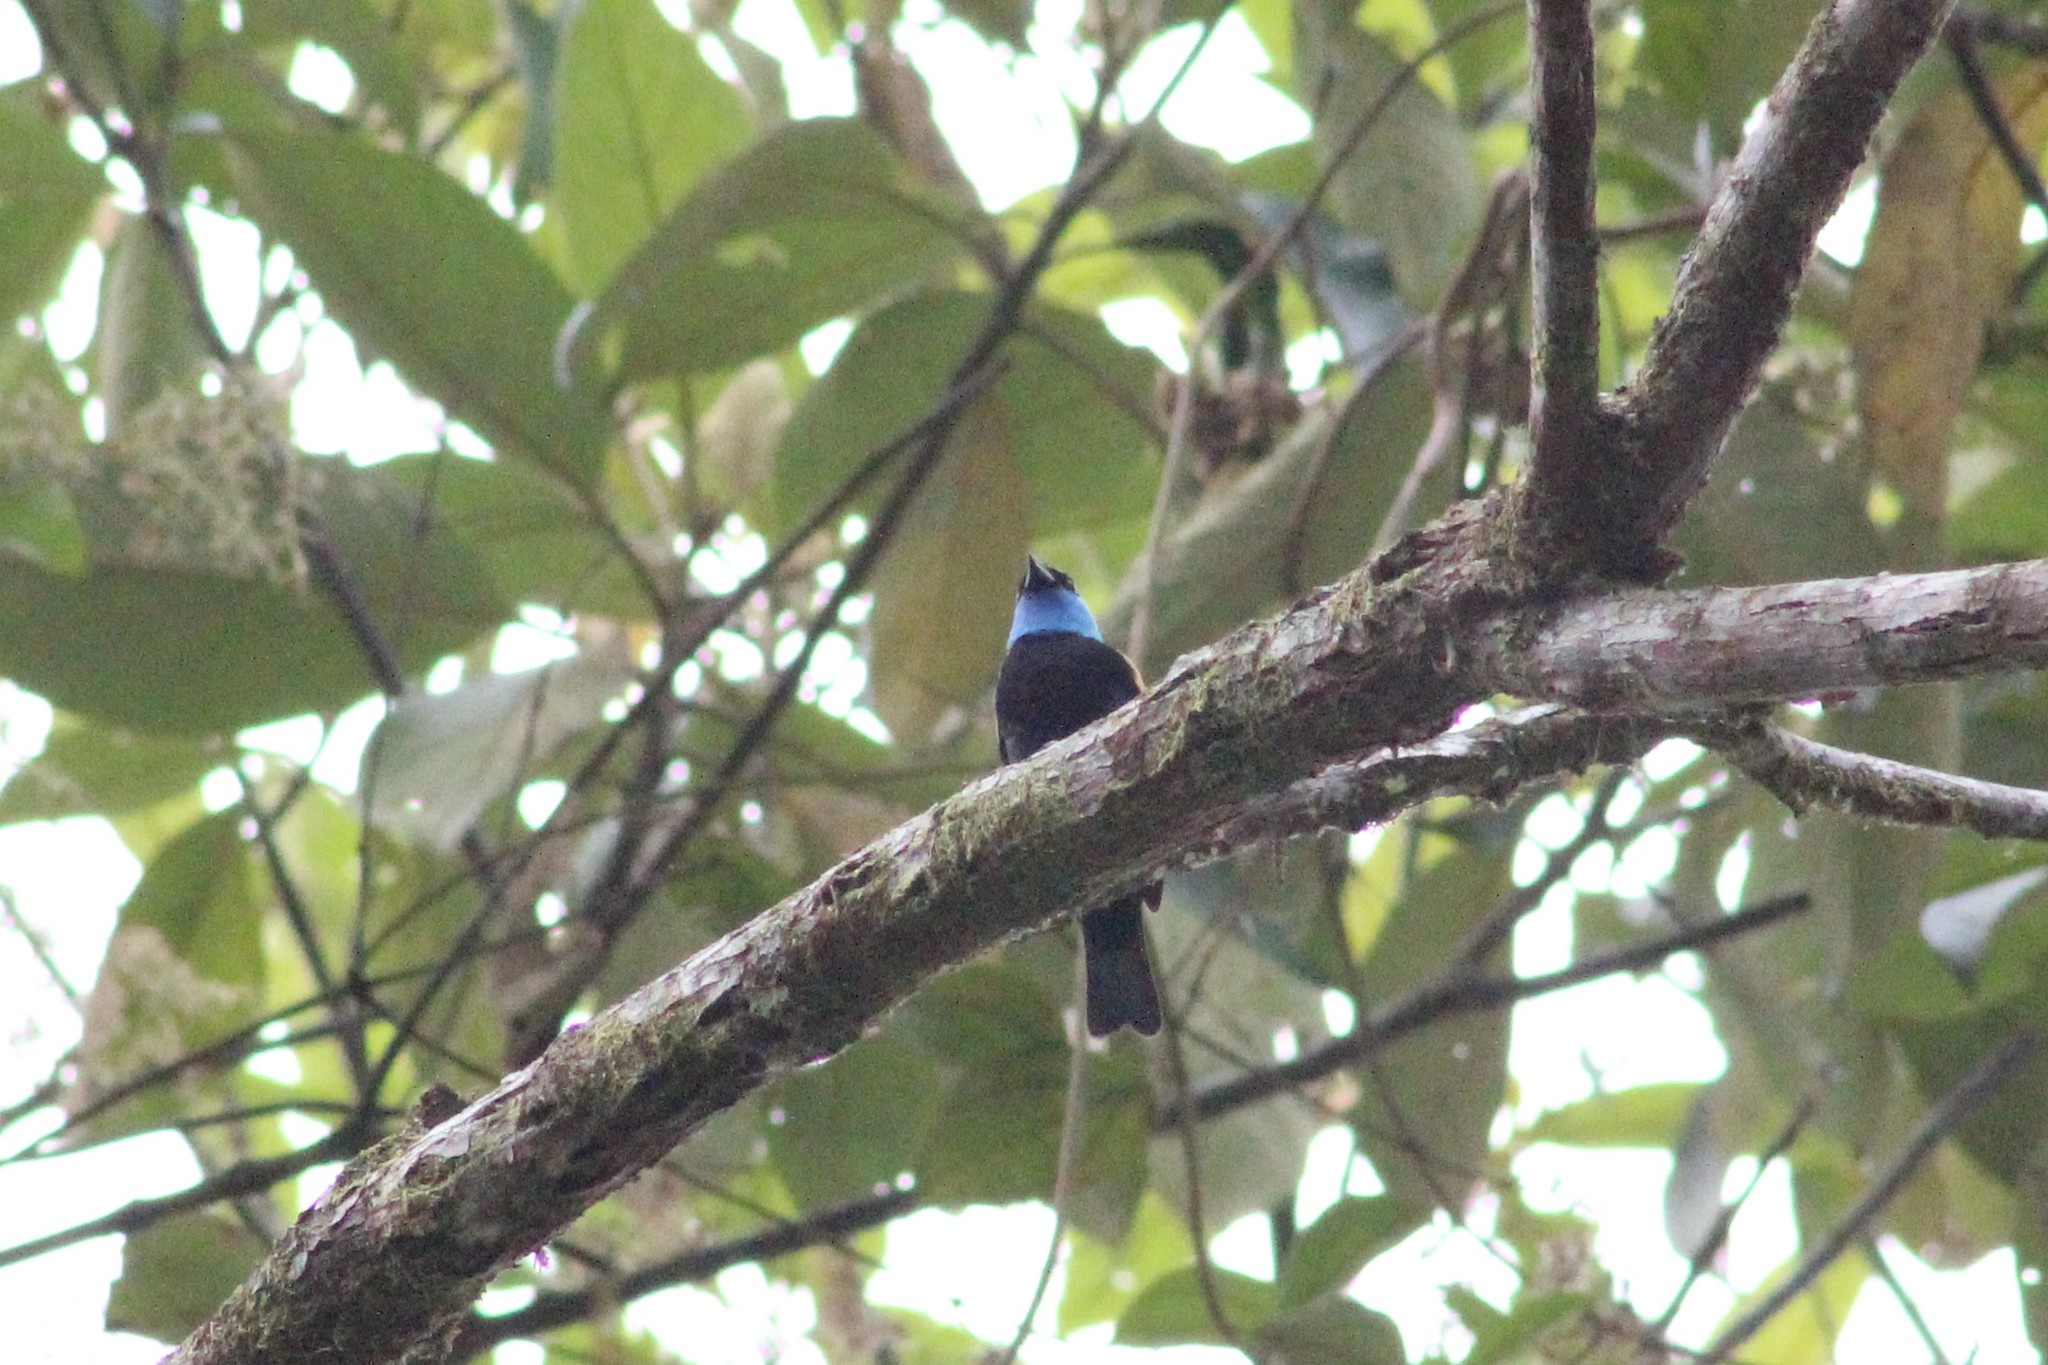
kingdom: Animalia
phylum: Chordata
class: Aves
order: Passeriformes
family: Thraupidae
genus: Stilpnia
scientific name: Stilpnia cyanicollis
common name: Blue-necked tanager
